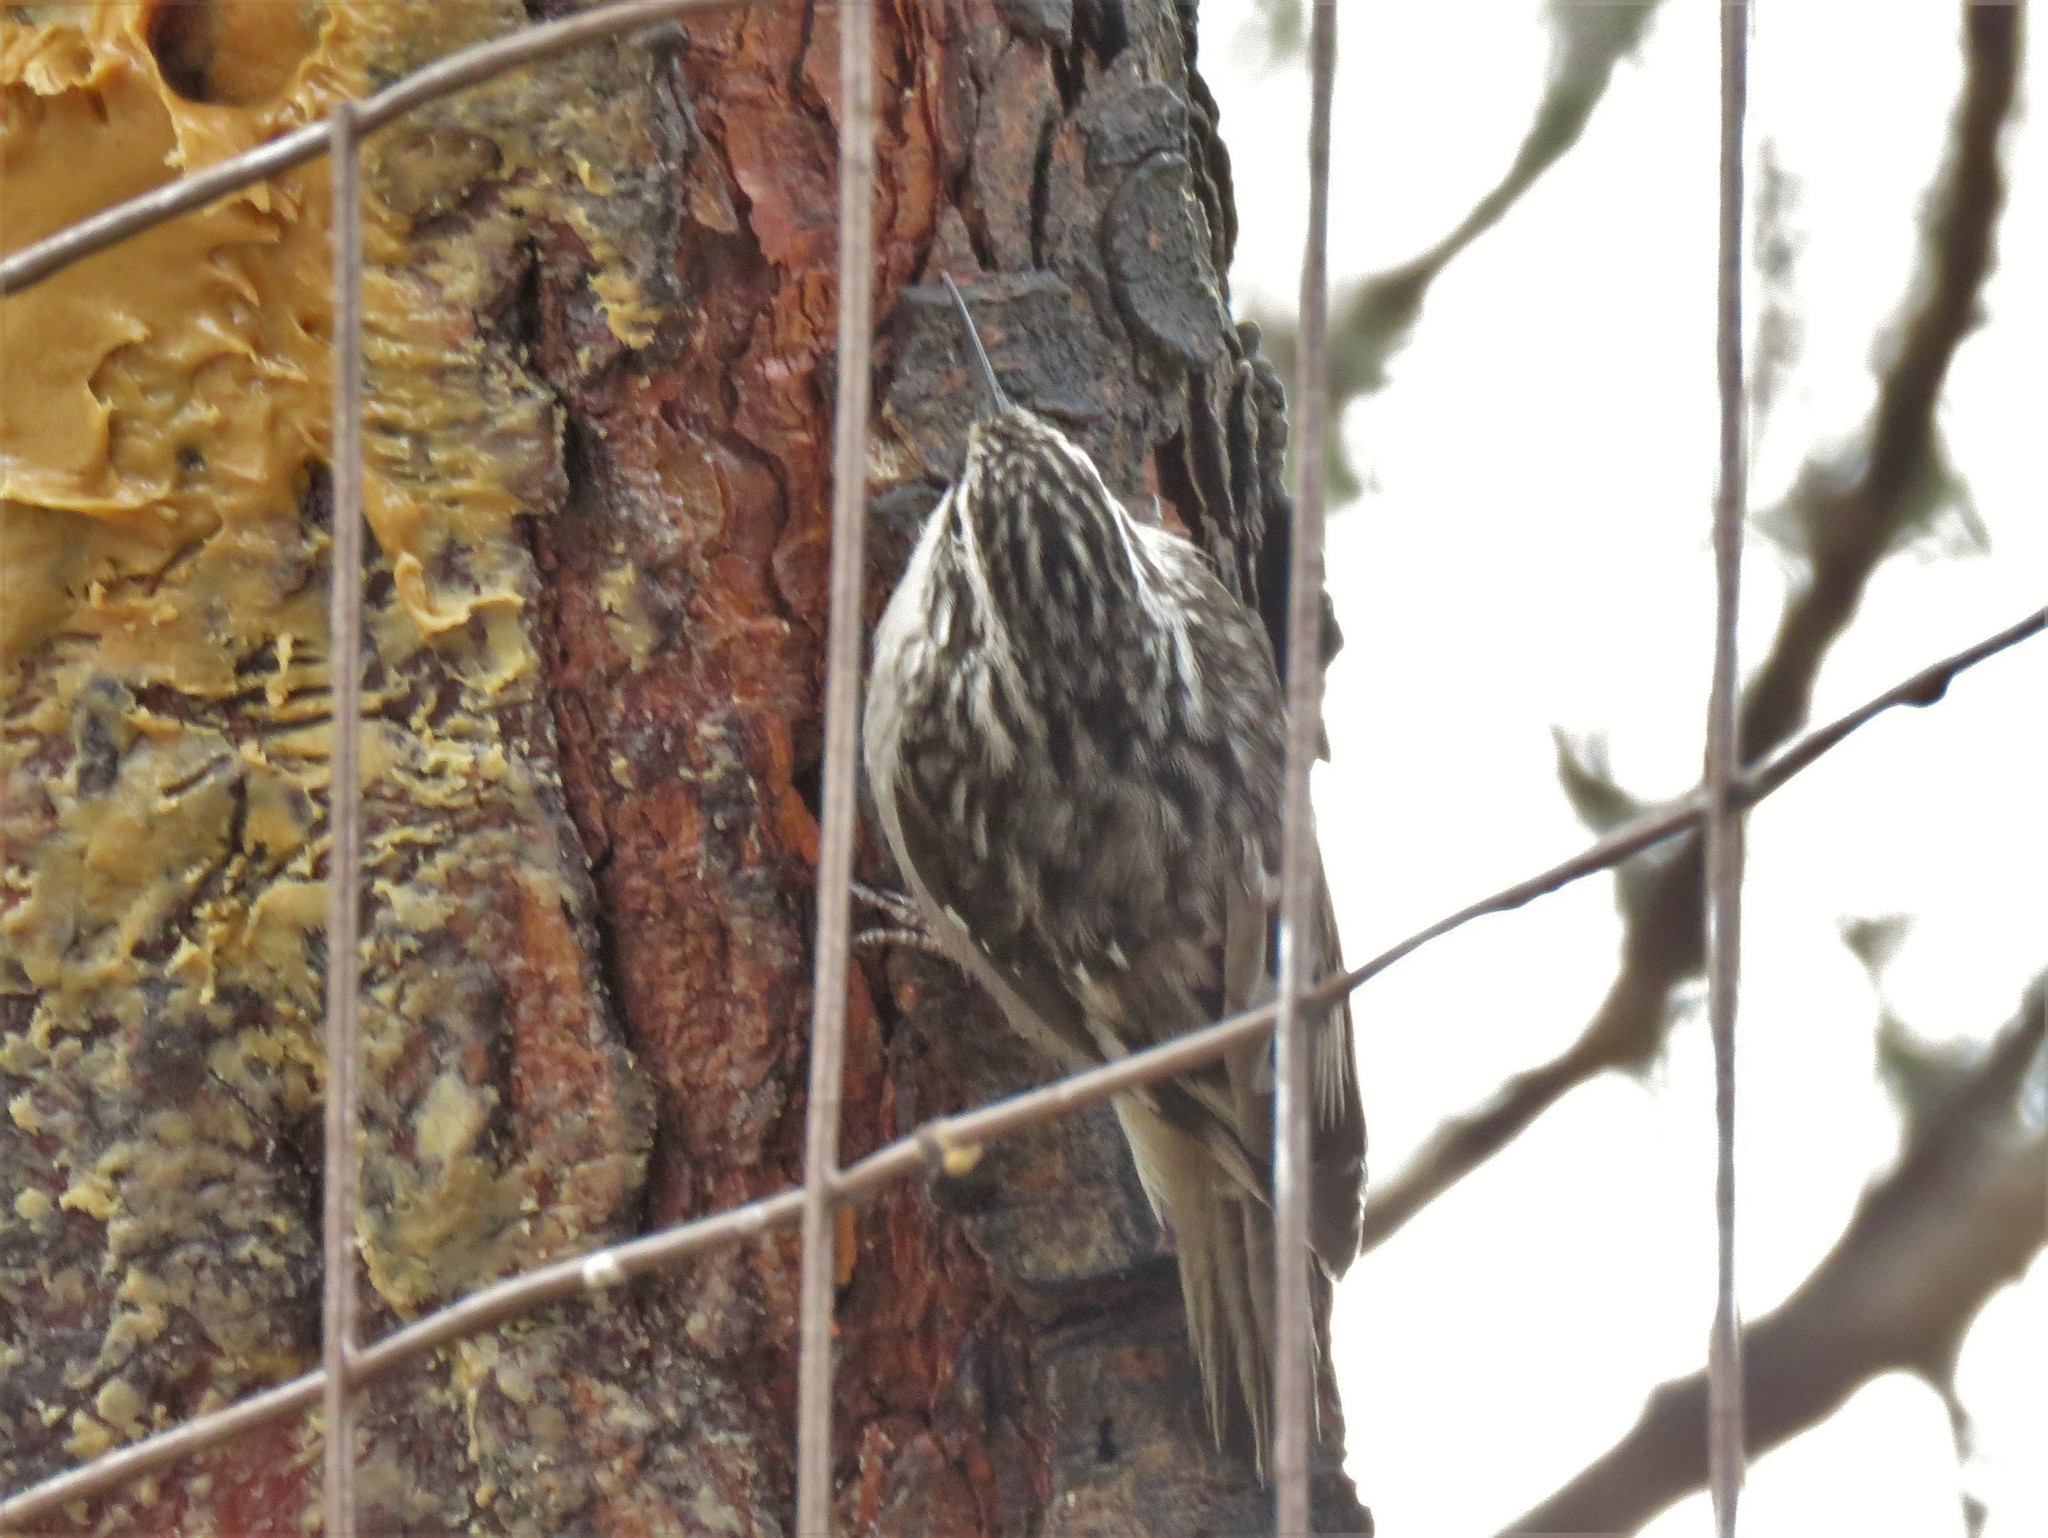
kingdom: Animalia
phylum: Chordata
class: Aves
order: Passeriformes
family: Certhiidae
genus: Certhia
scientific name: Certhia americana
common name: Brown creeper
